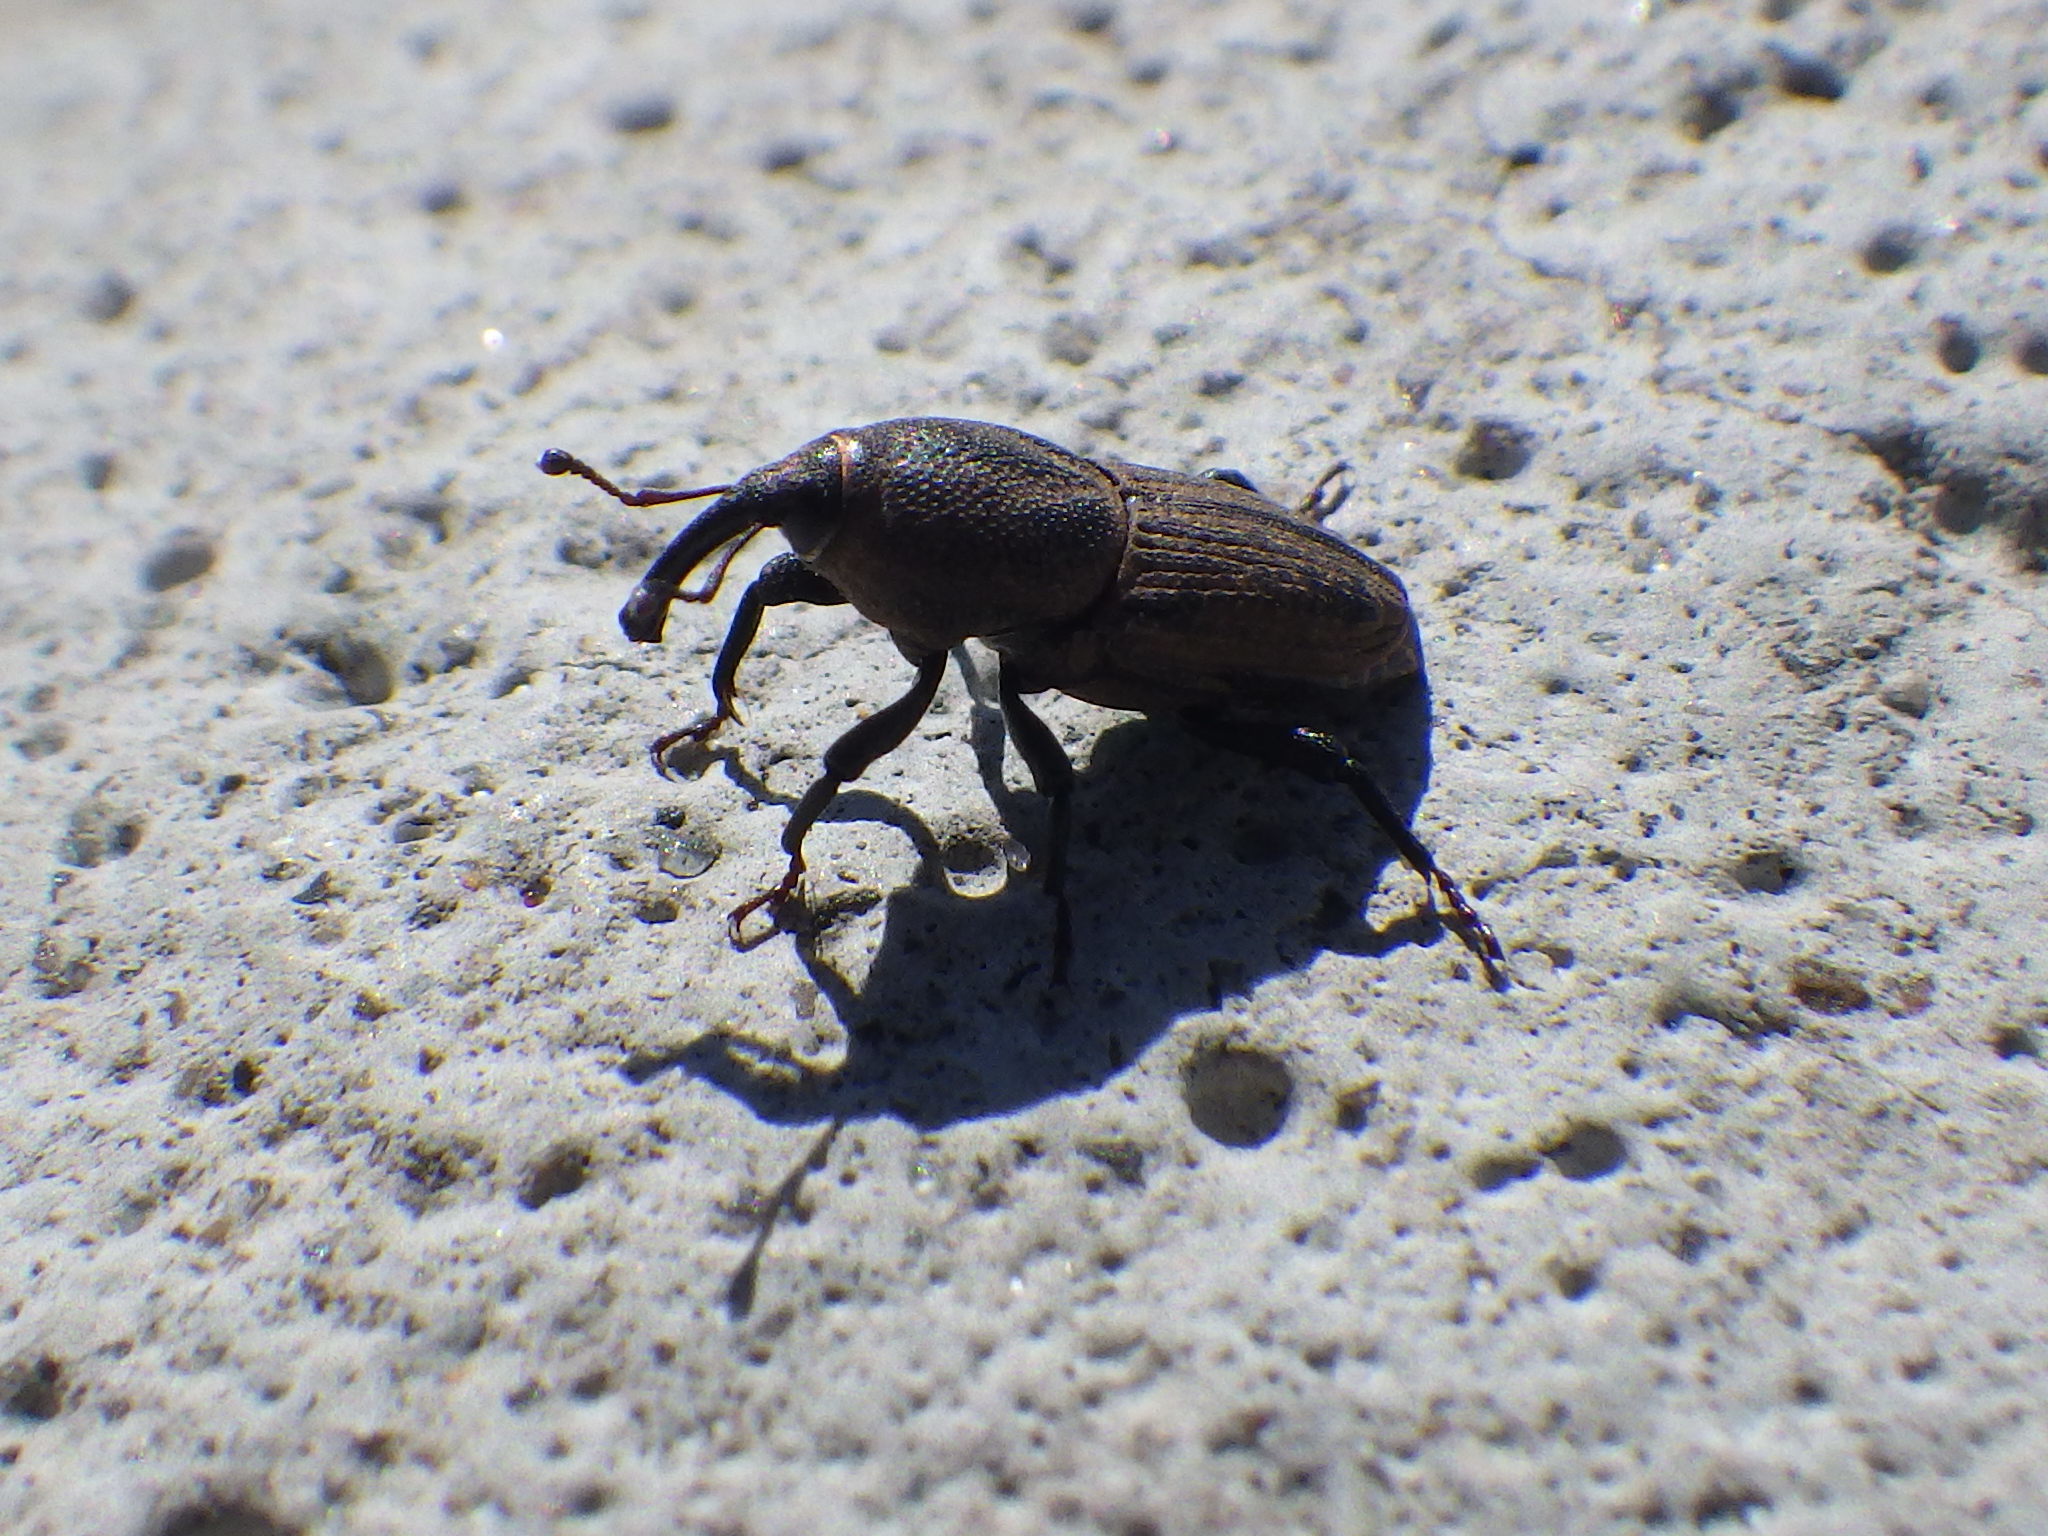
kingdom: Animalia
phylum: Arthropoda
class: Insecta
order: Coleoptera
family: Dryophthoridae
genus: Sphenophorus
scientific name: Sphenophorus interstitialis
